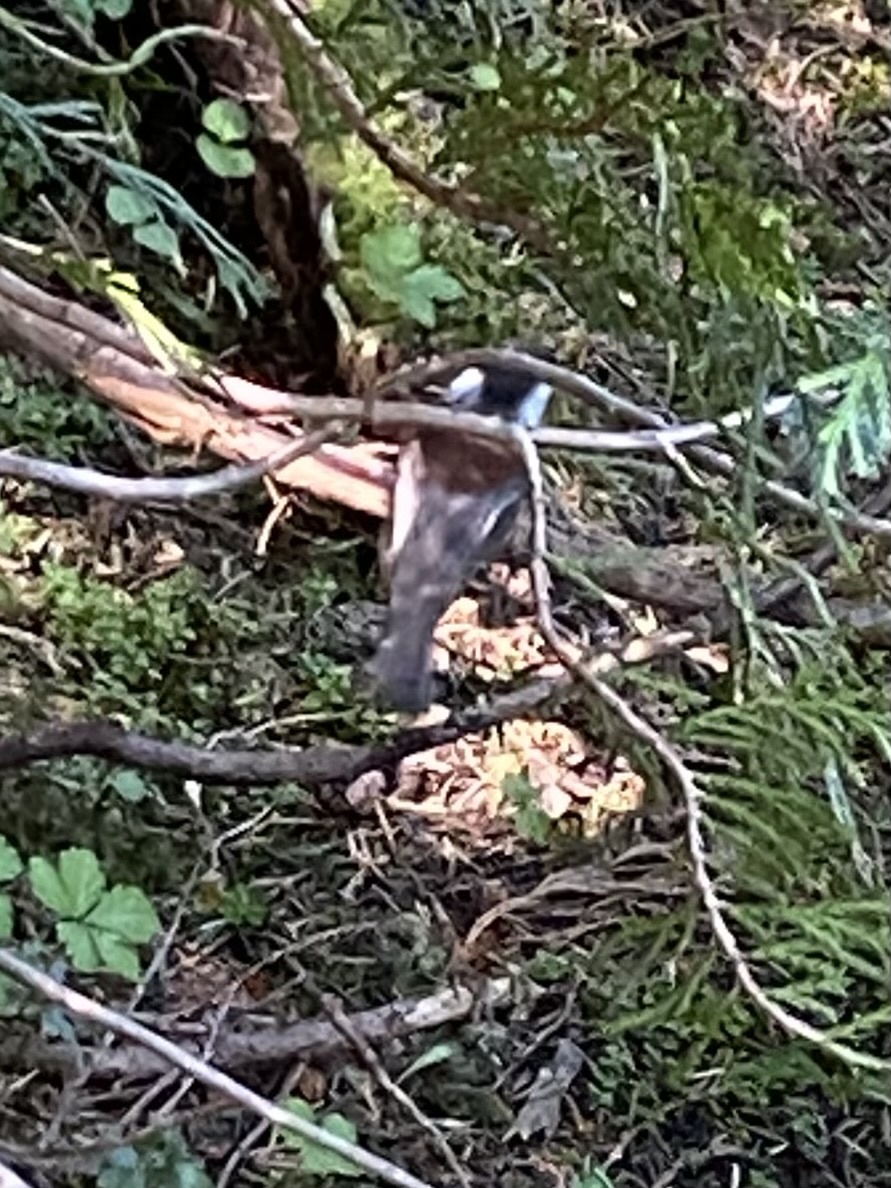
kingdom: Animalia
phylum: Chordata
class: Aves
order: Passeriformes
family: Paridae
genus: Poecile
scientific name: Poecile rufescens
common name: Chestnut-backed chickadee
